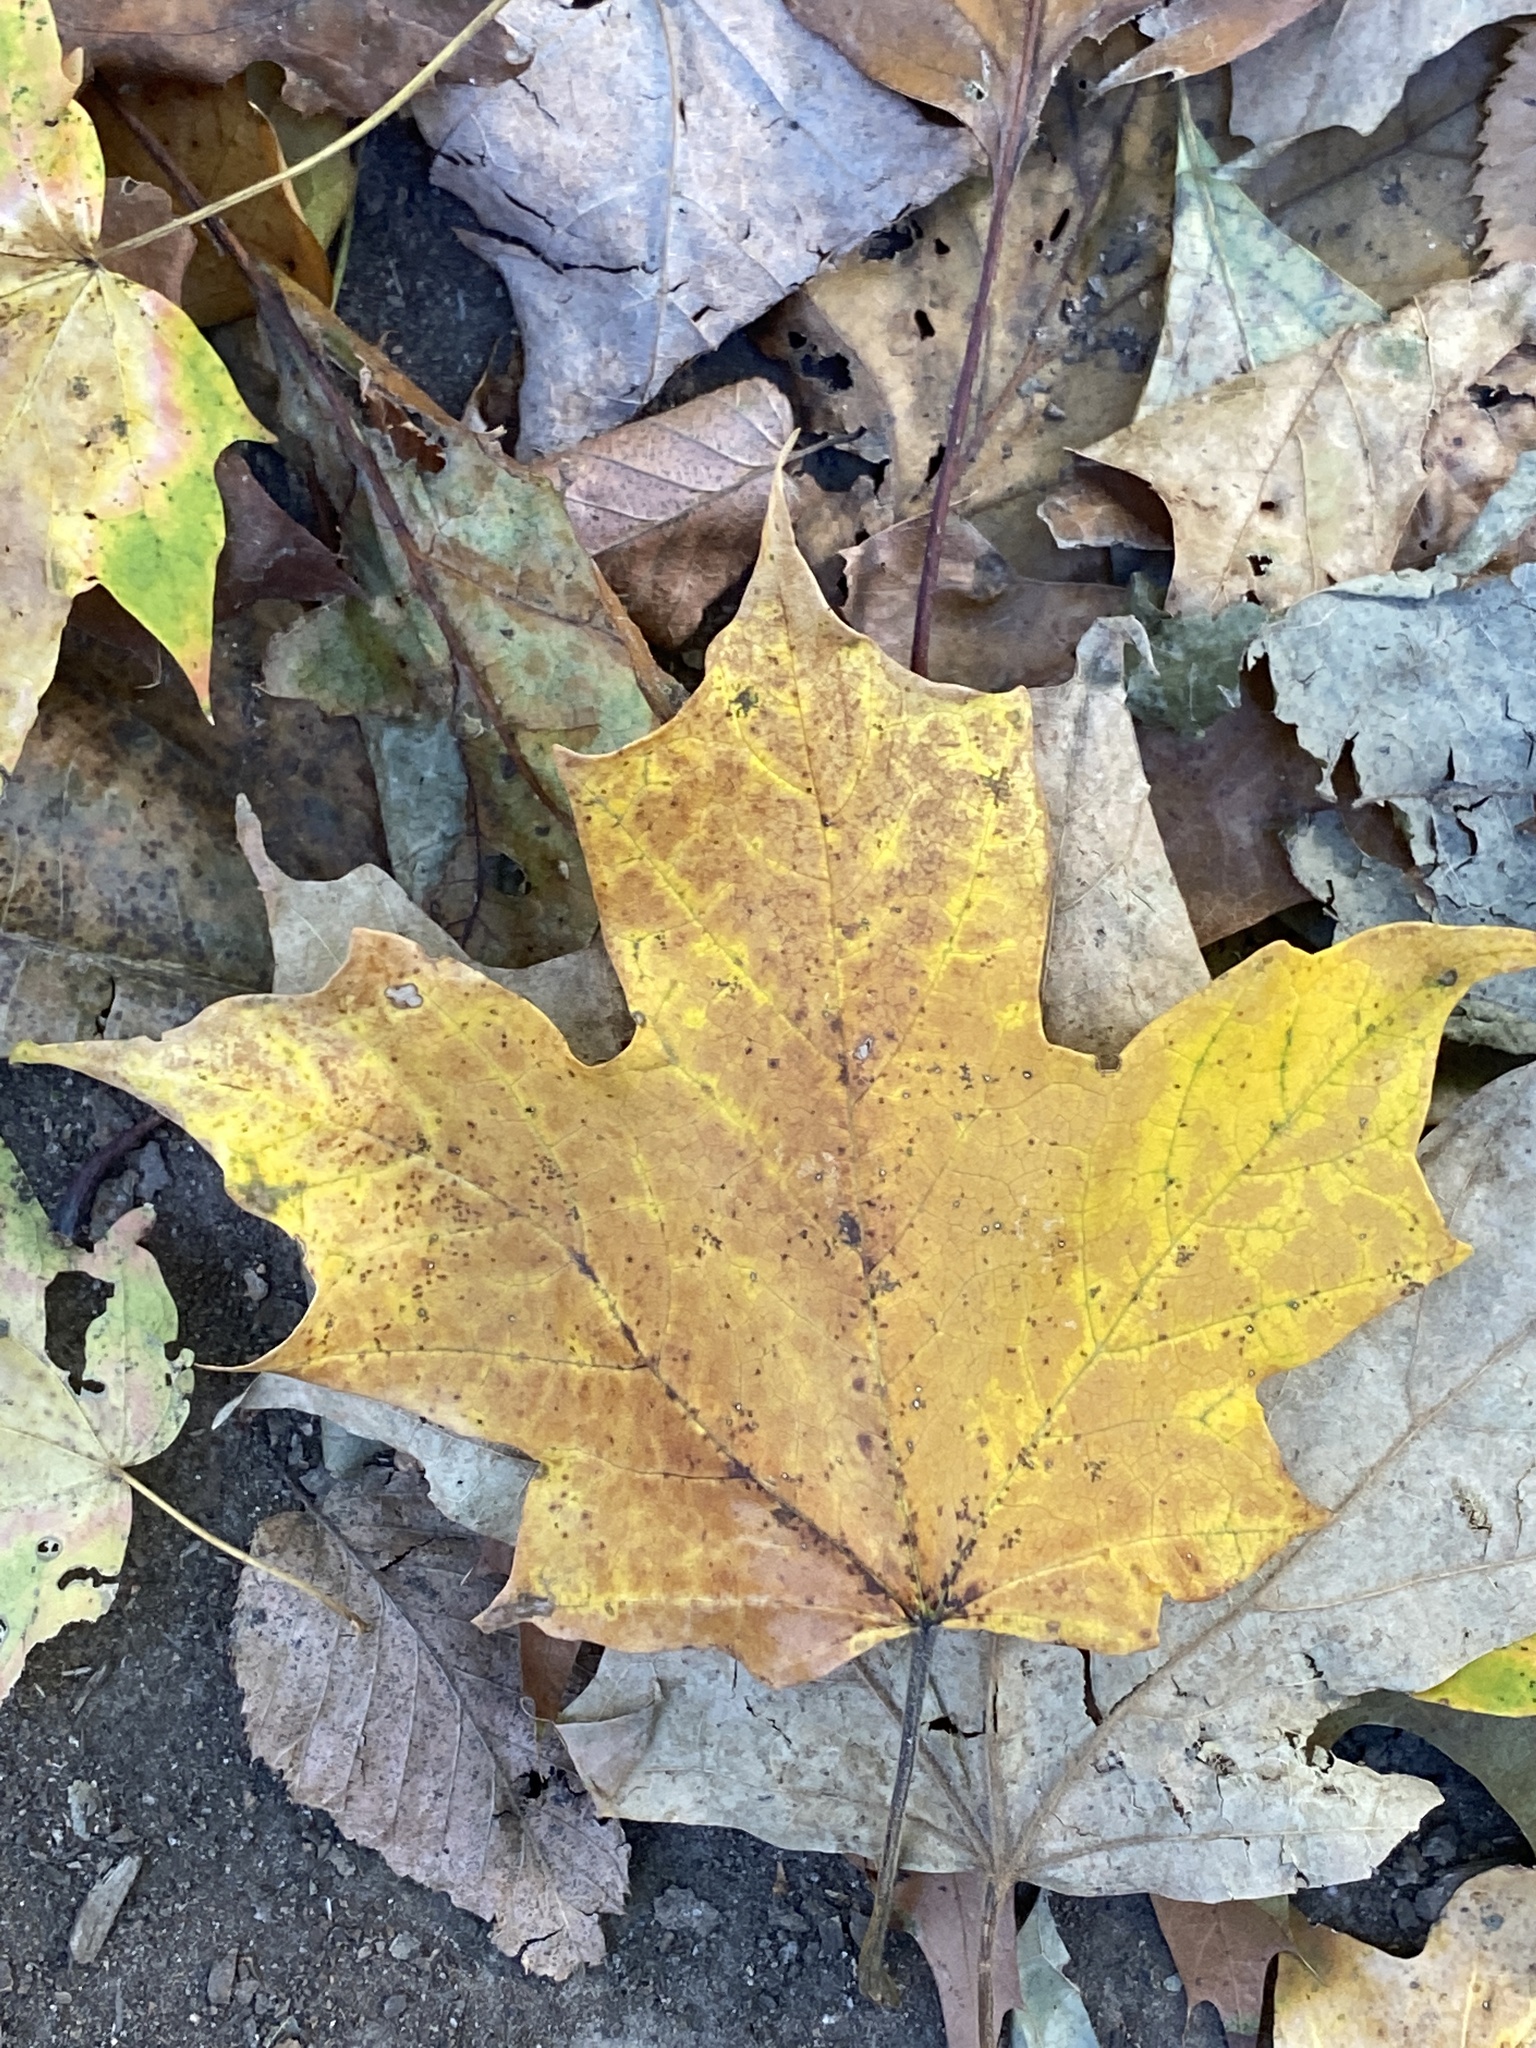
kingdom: Plantae
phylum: Tracheophyta
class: Magnoliopsida
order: Sapindales
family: Sapindaceae
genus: Acer
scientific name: Acer saccharum
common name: Sugar maple
